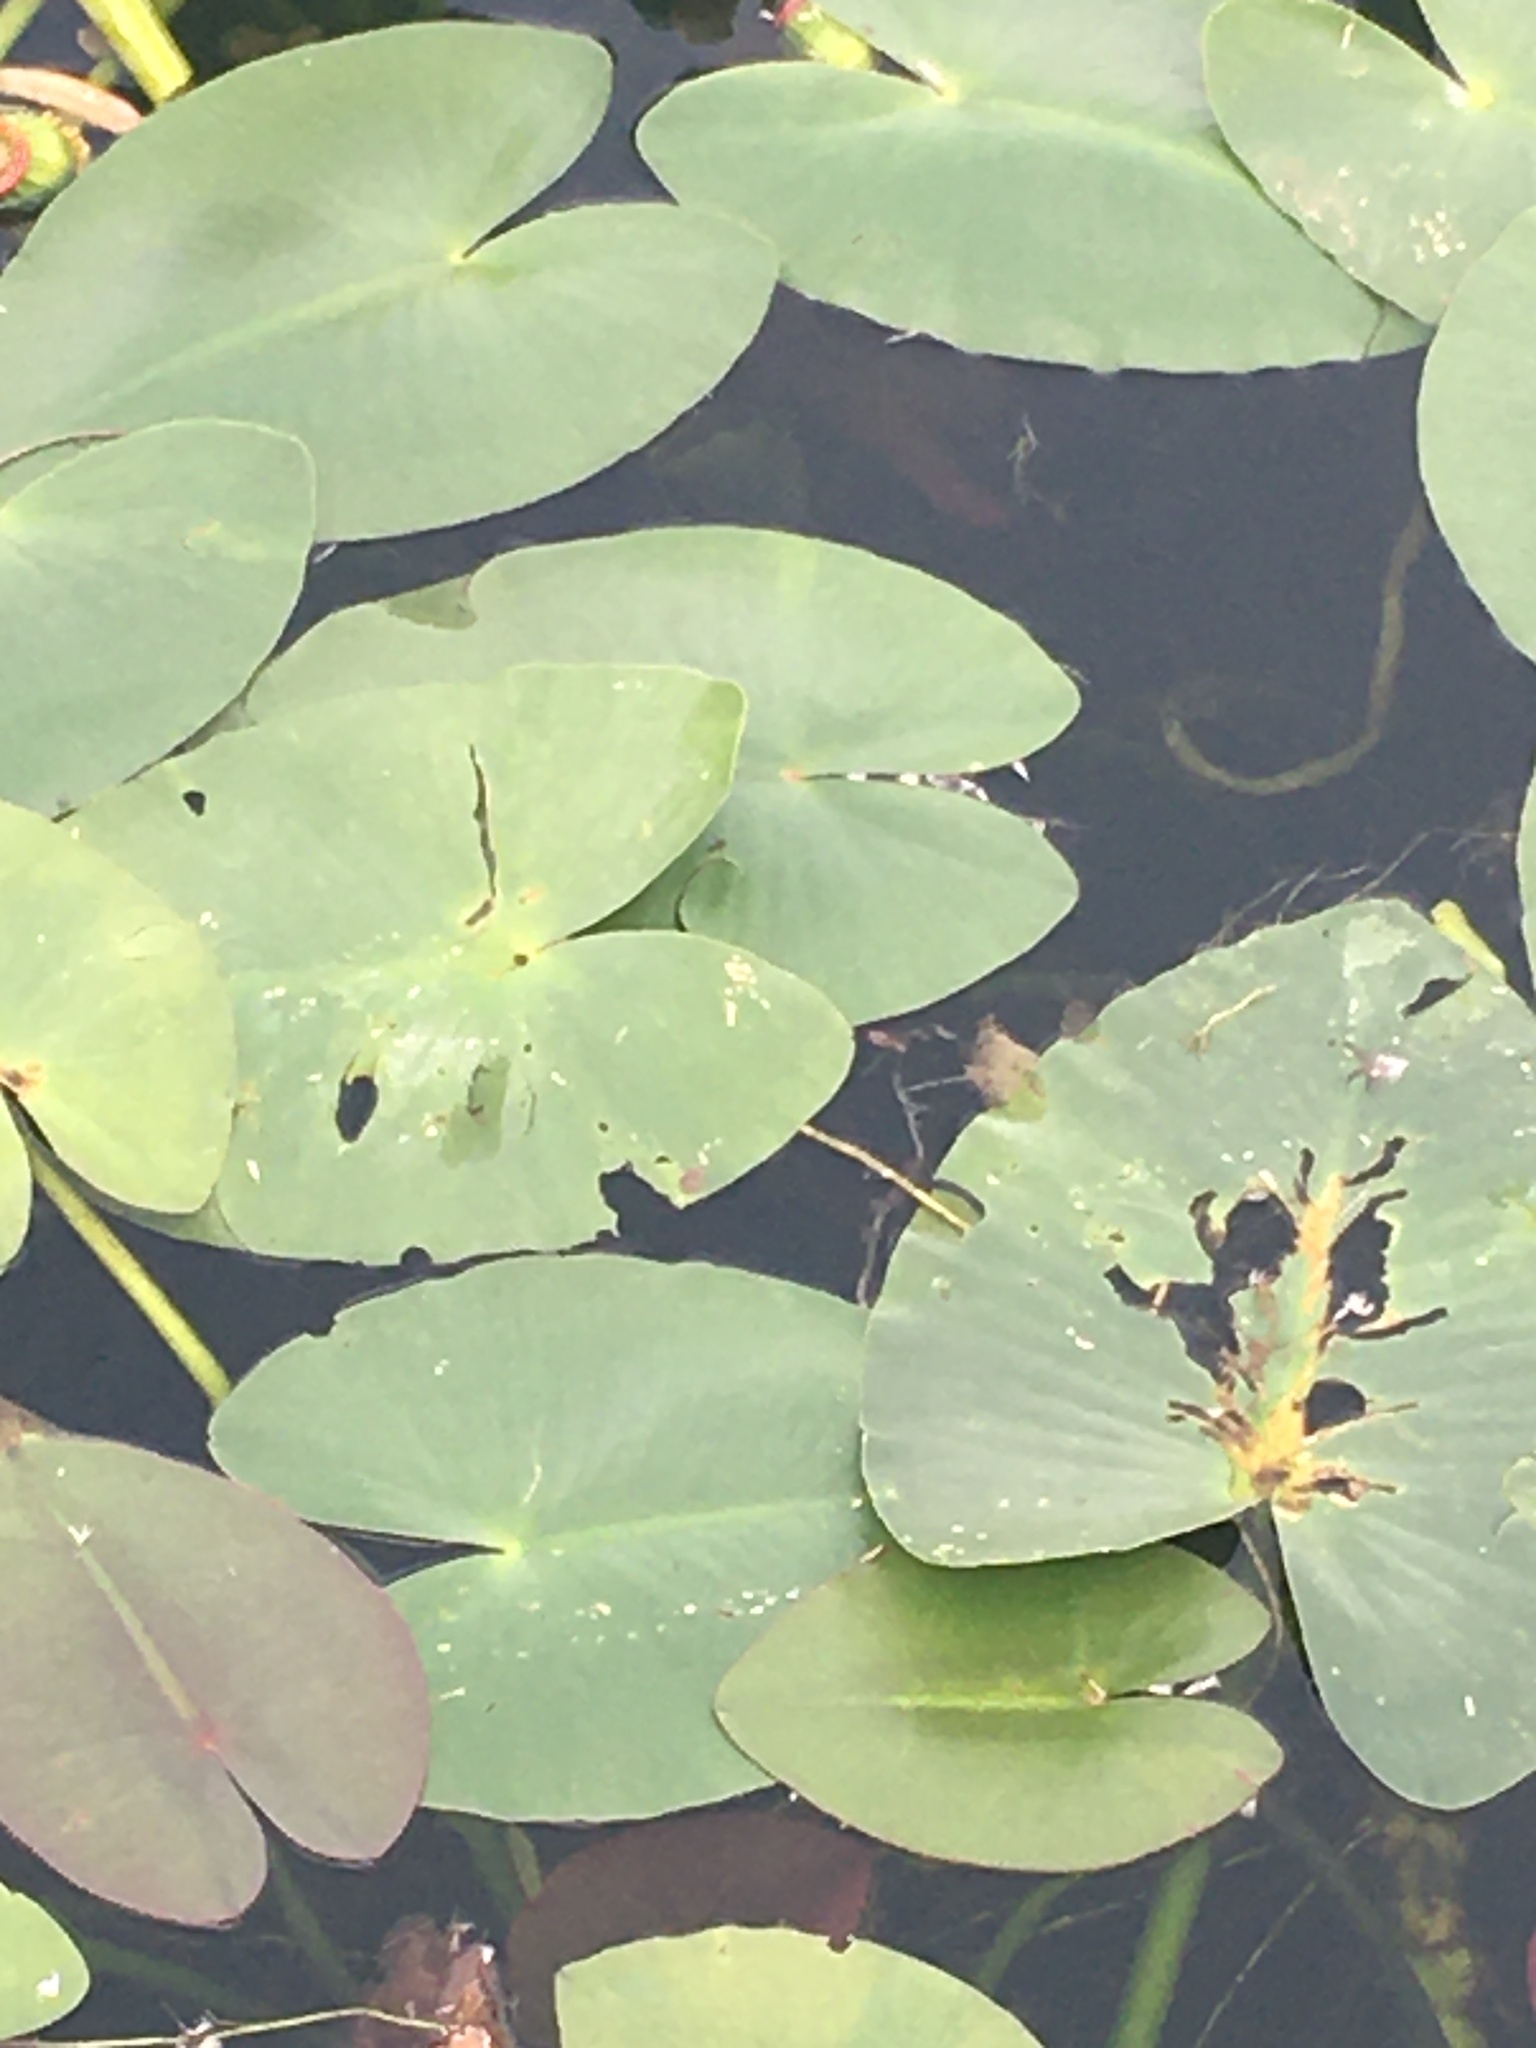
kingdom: Plantae
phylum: Tracheophyta
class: Magnoliopsida
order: Nymphaeales
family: Nymphaeaceae
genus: Nuphar
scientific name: Nuphar advena
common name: Spatter-dock
